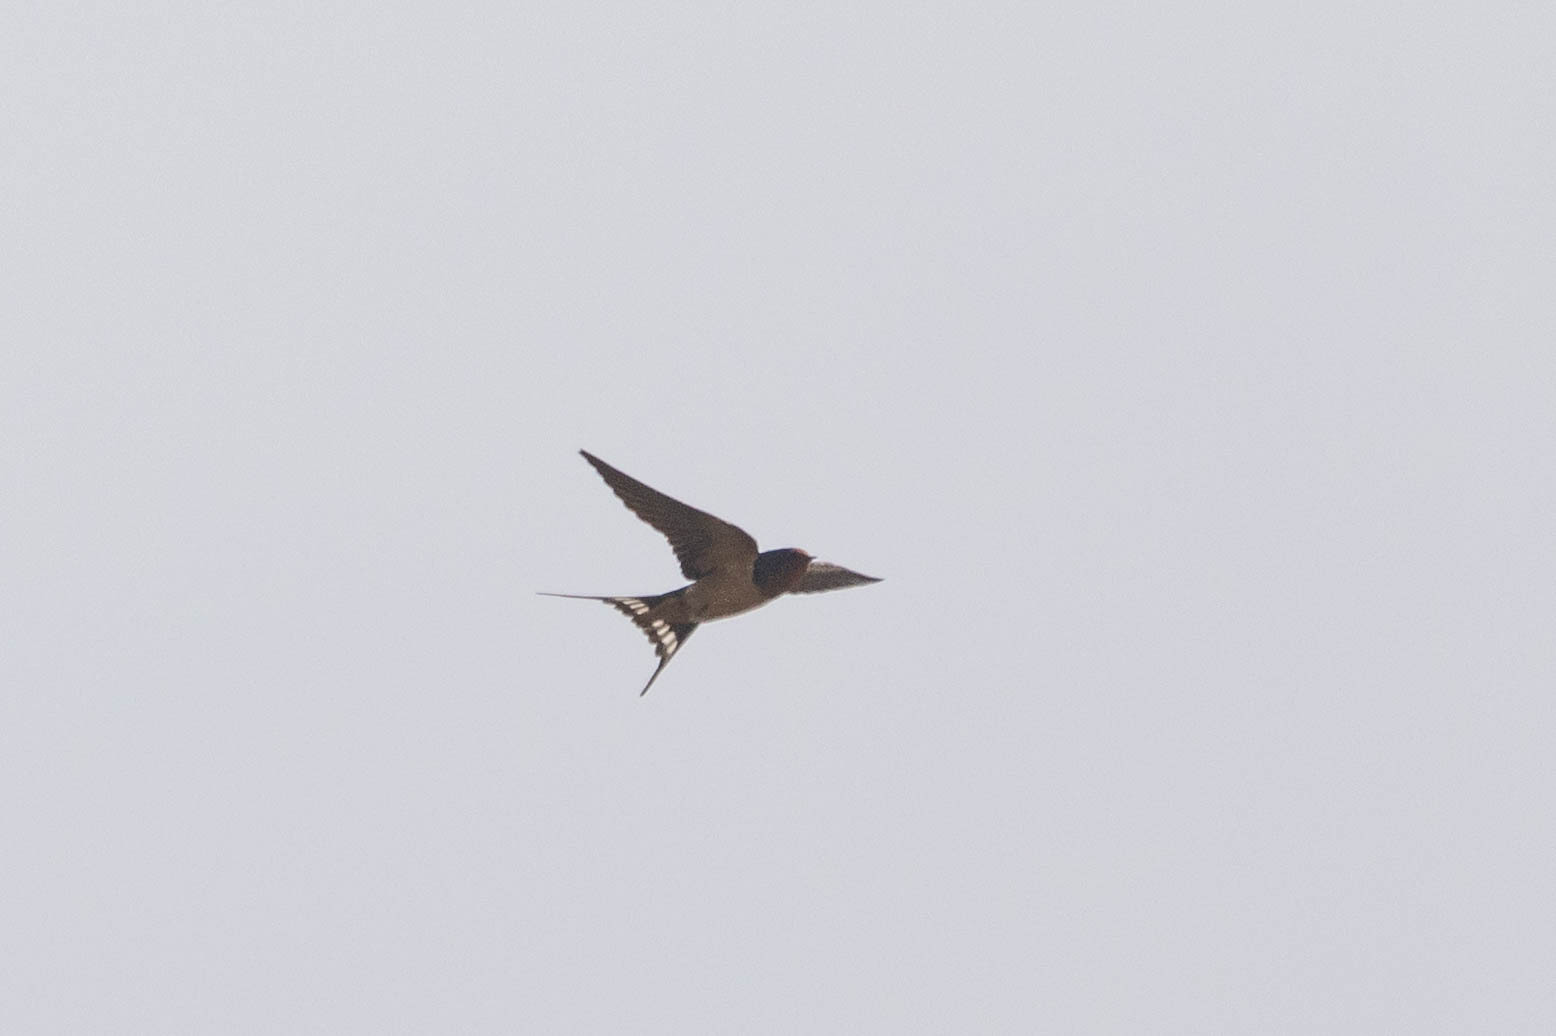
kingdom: Animalia
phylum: Chordata
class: Aves
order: Passeriformes
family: Hirundinidae
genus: Hirundo
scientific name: Hirundo rustica
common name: Barn swallow
